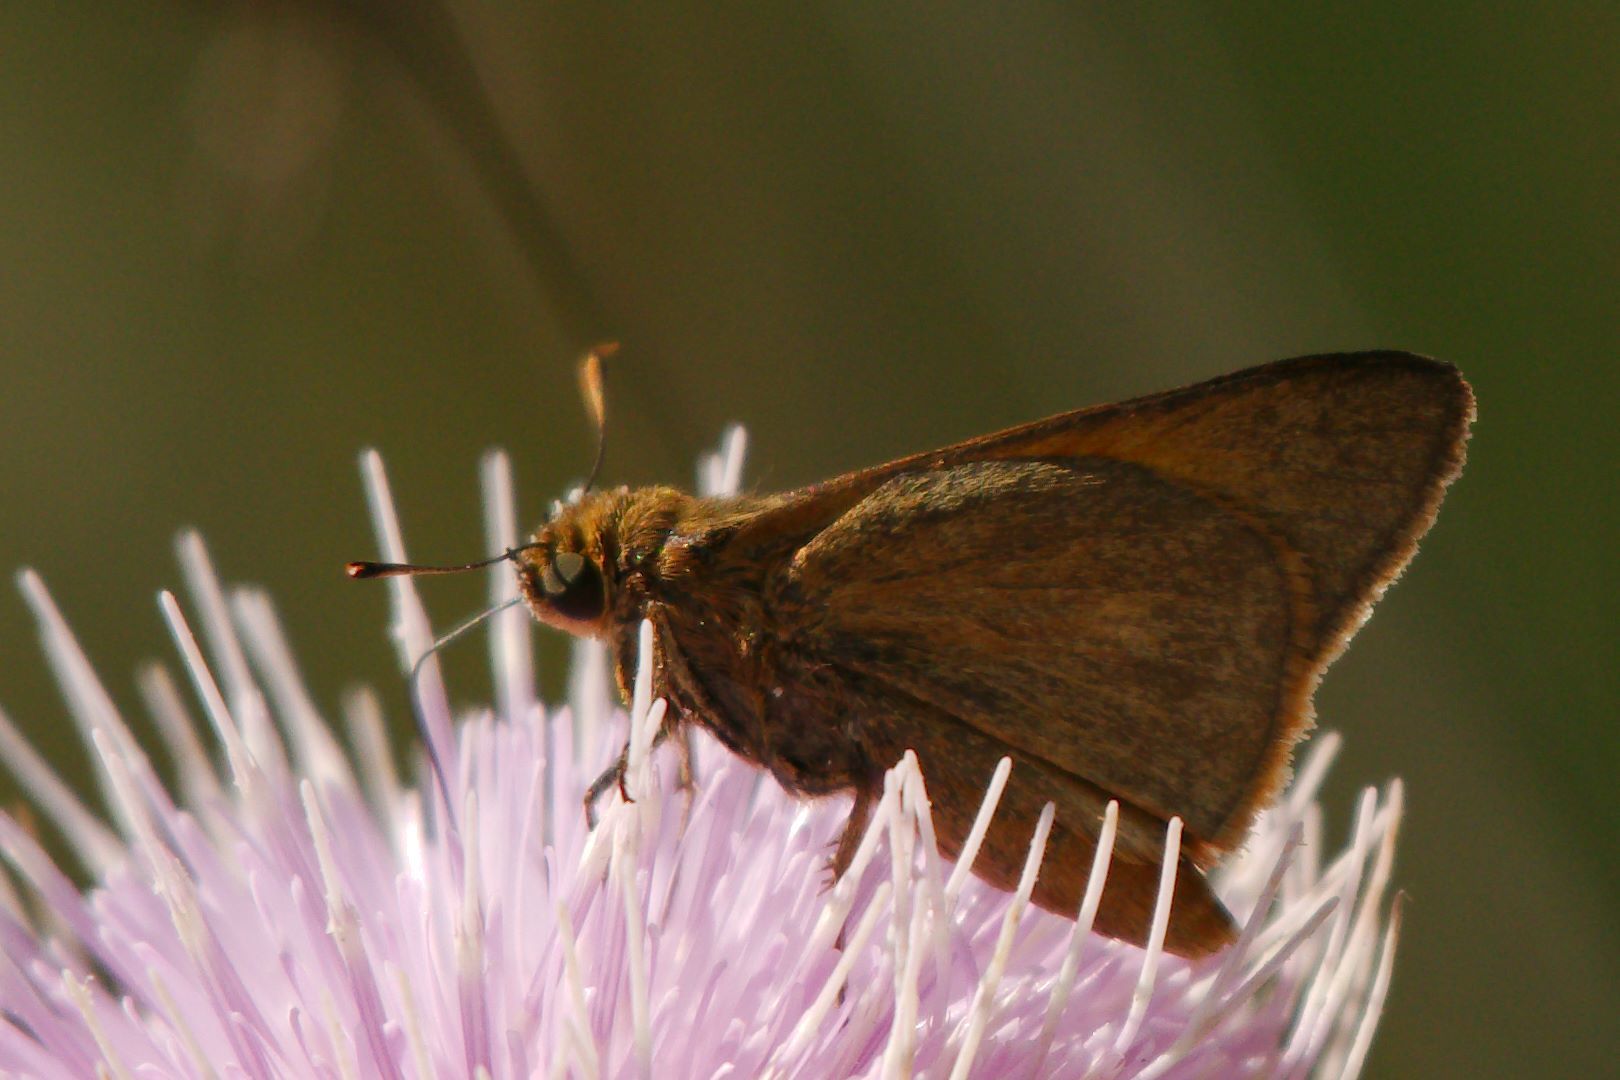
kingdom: Animalia
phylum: Arthropoda
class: Insecta
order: Lepidoptera
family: Hesperiidae
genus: Euphyes
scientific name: Euphyes pilatka
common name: Palatka skipper
